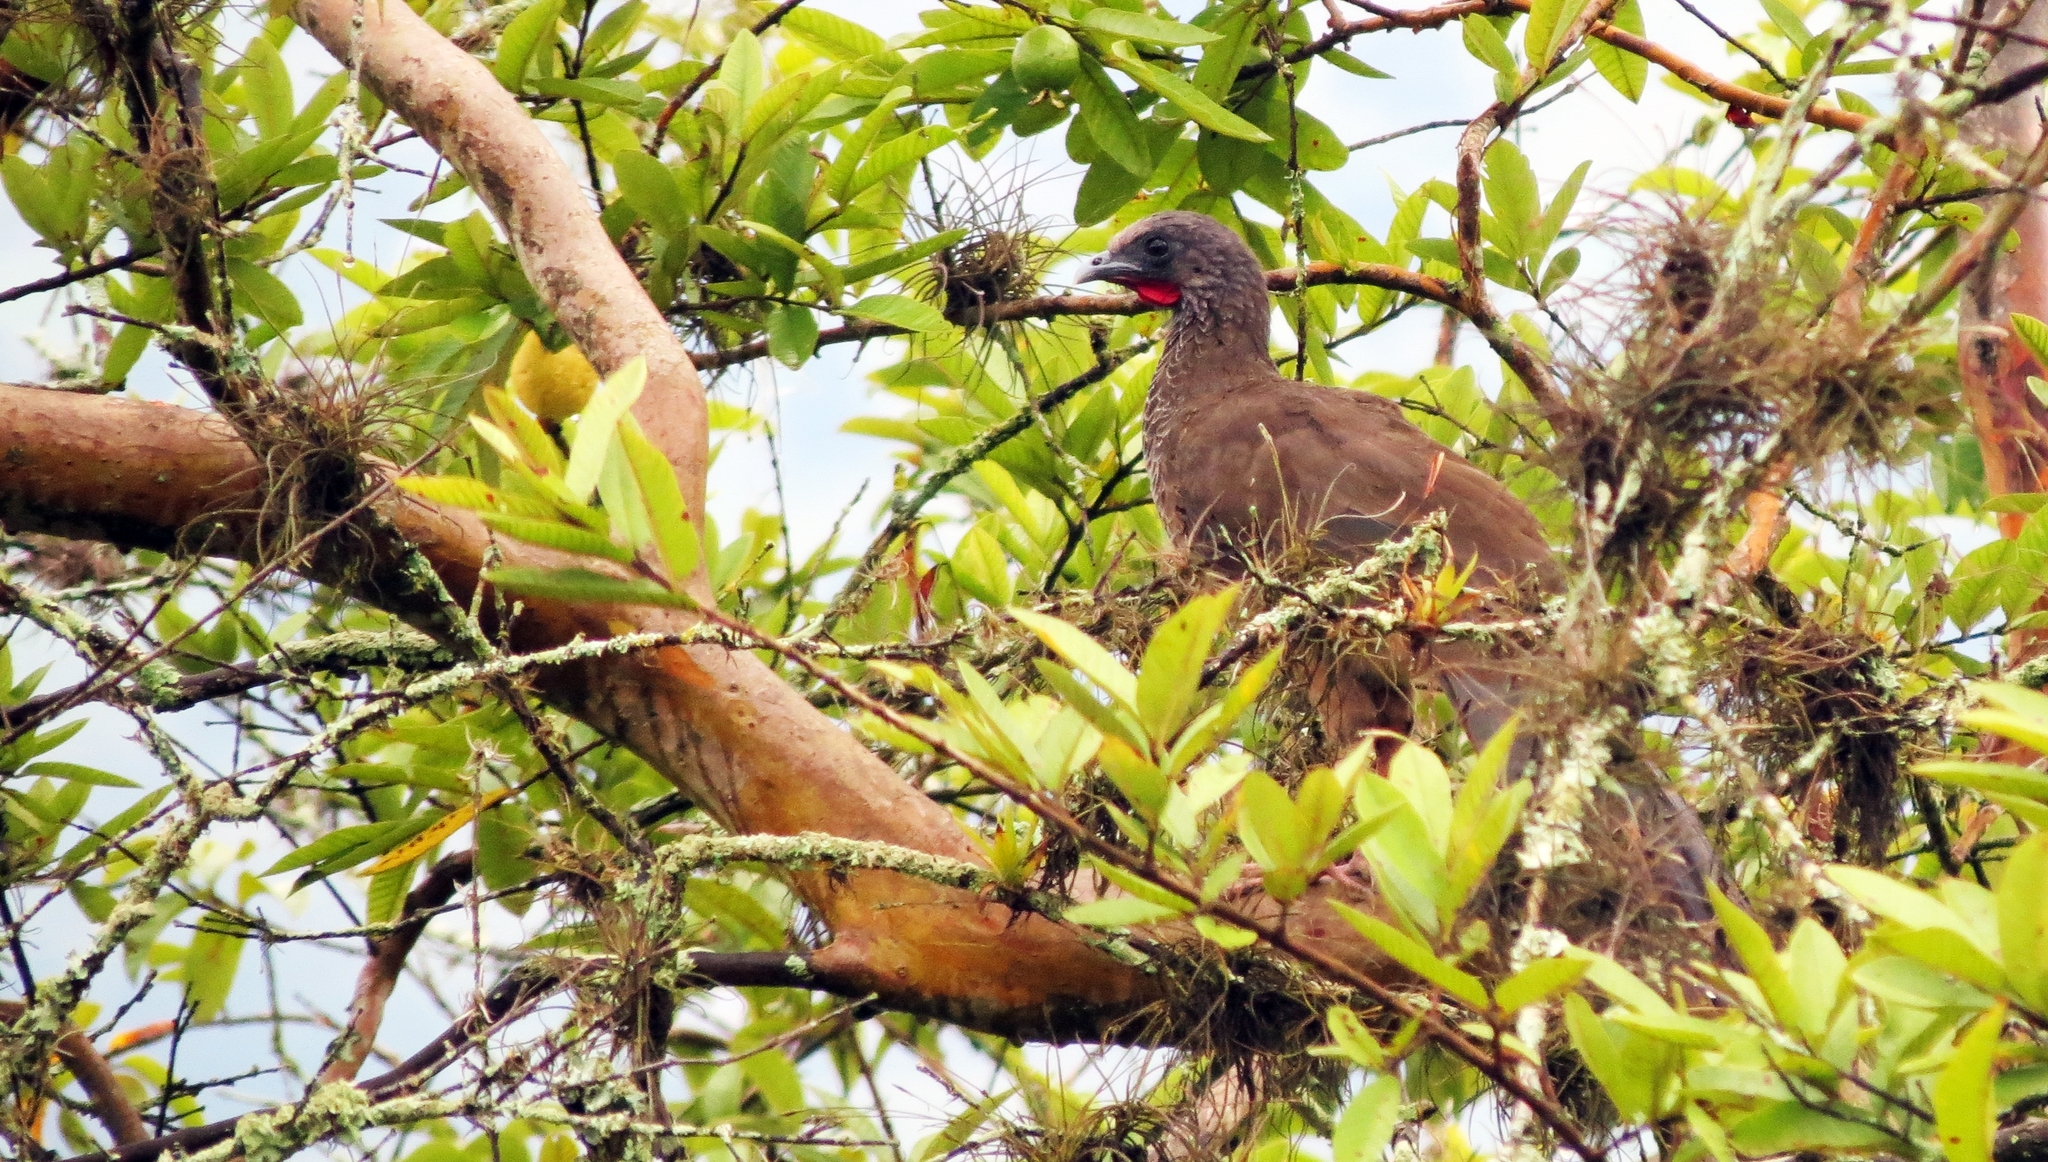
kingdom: Animalia
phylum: Chordata
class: Aves
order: Galliformes
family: Cracidae
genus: Ortalis
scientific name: Ortalis columbiana
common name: Colombian chachalaca
